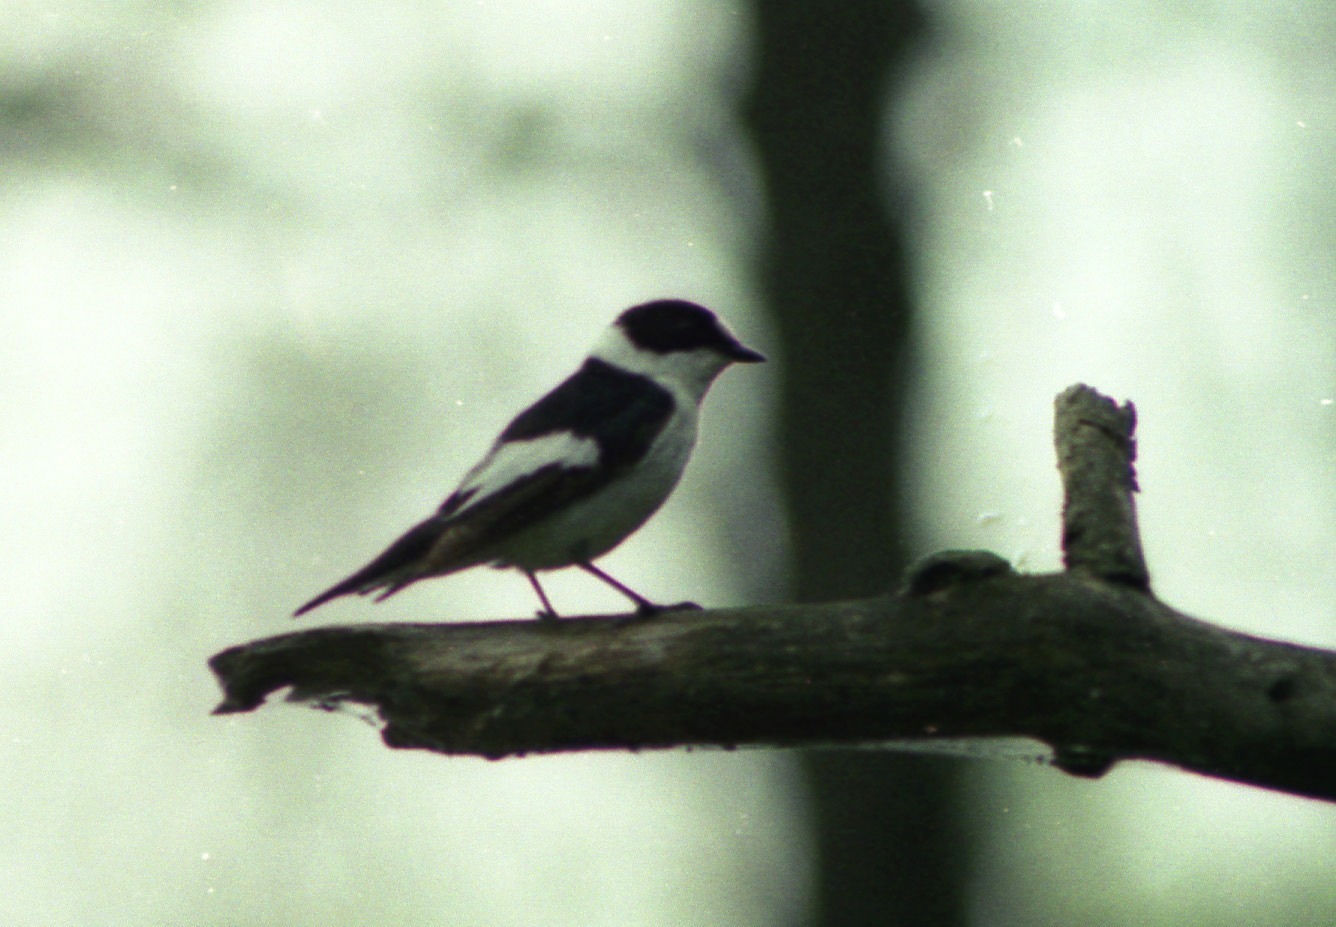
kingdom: Animalia
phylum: Chordata
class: Aves
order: Passeriformes
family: Muscicapidae
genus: Ficedula
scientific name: Ficedula albicollis
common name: Collared flycatcher
